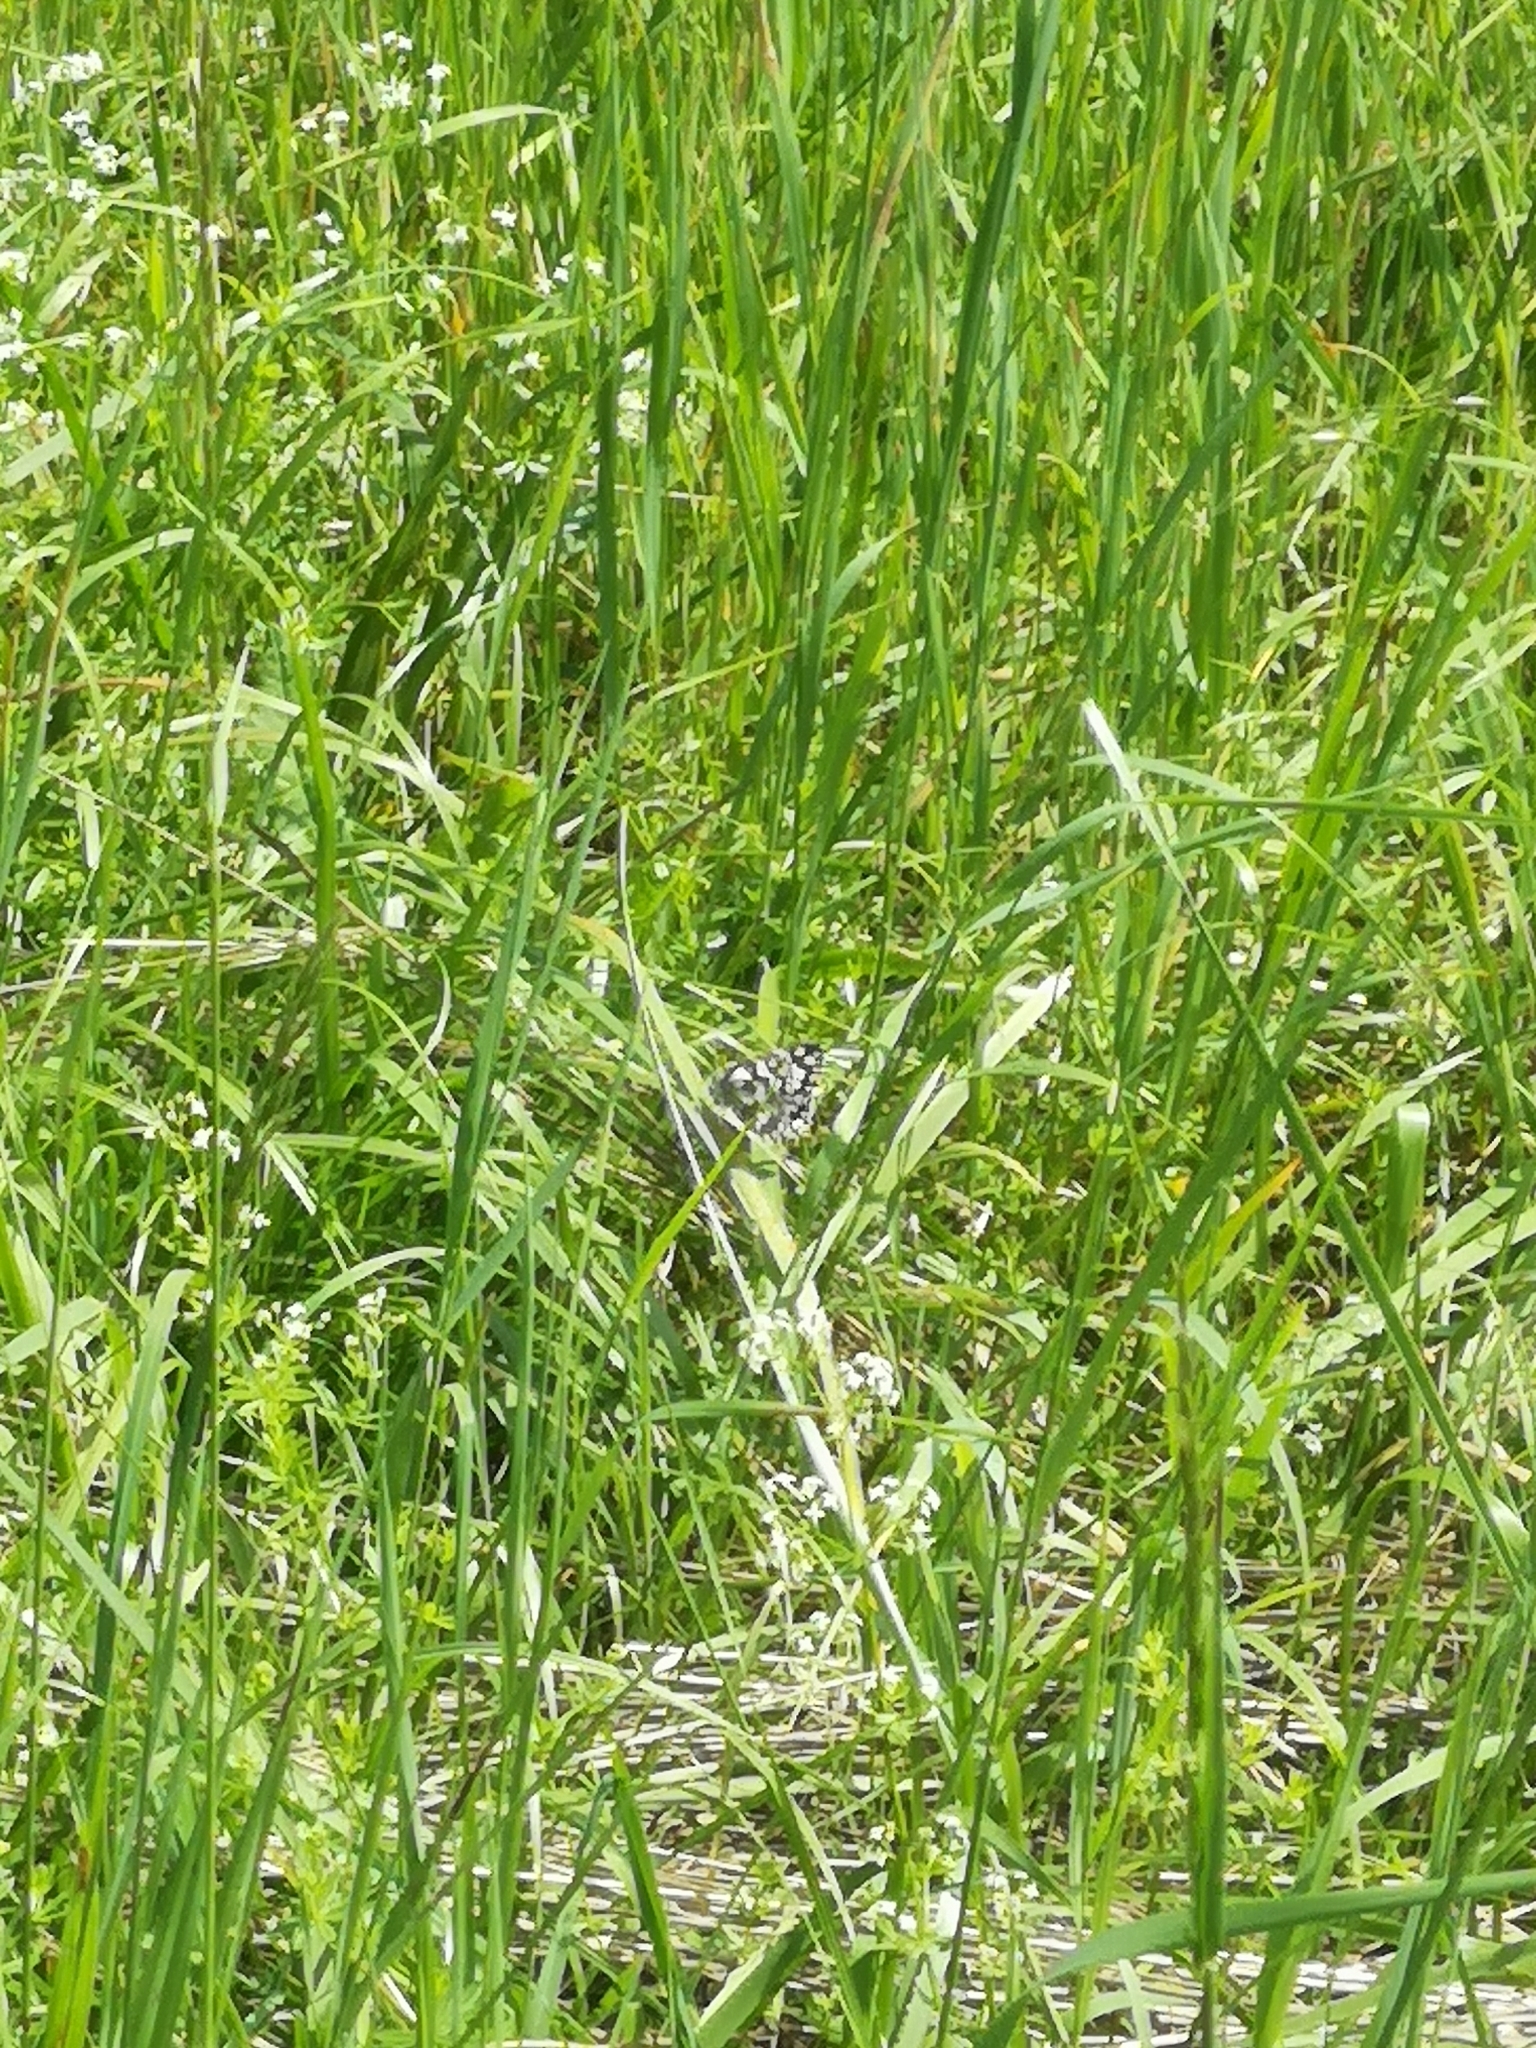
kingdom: Animalia
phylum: Arthropoda
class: Insecta
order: Lepidoptera
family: Nymphalidae
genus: Melanargia
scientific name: Melanargia galathea
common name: Marbled white
